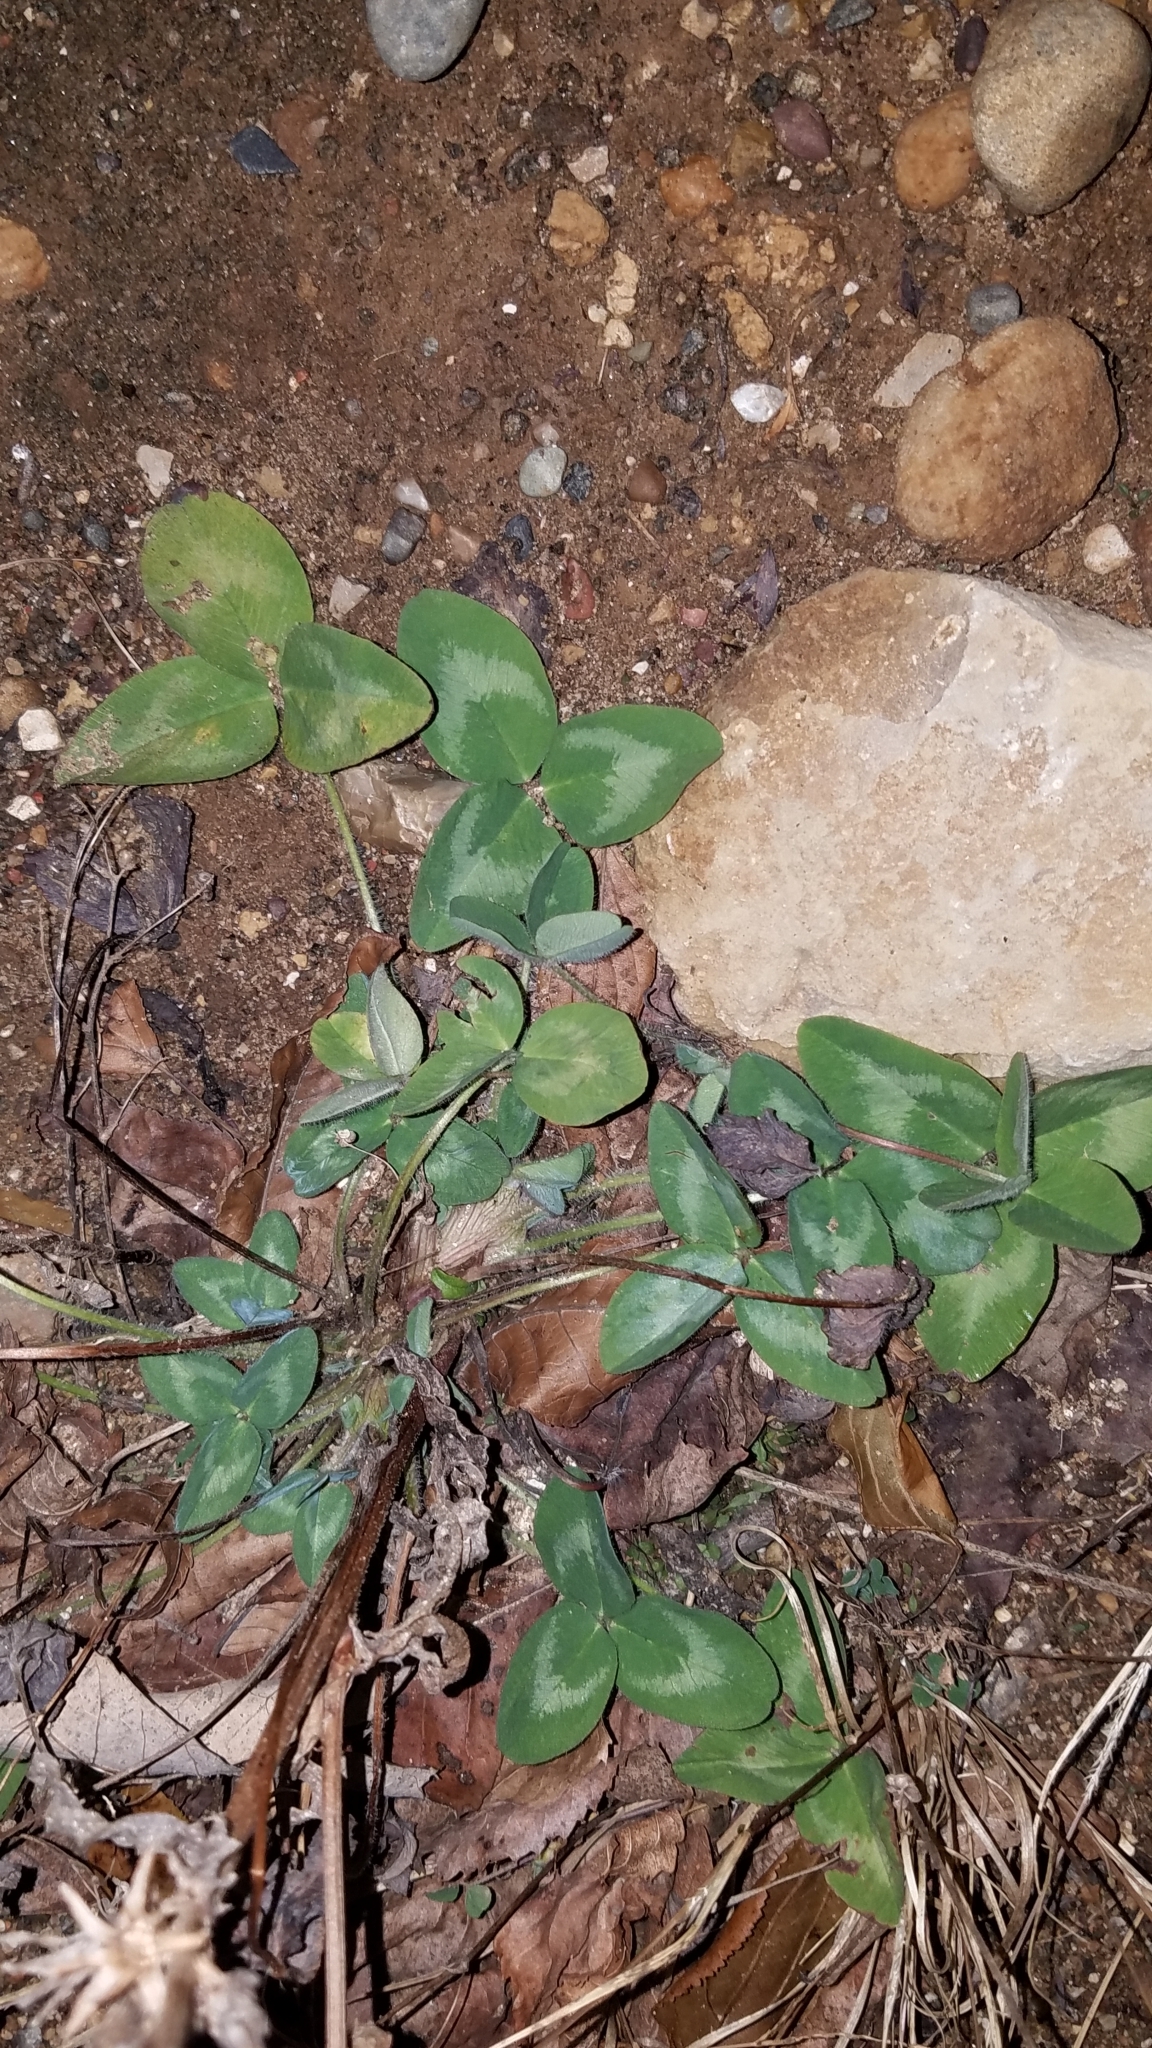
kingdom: Plantae
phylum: Tracheophyta
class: Magnoliopsida
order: Fabales
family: Fabaceae
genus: Trifolium
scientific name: Trifolium pratense
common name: Red clover
